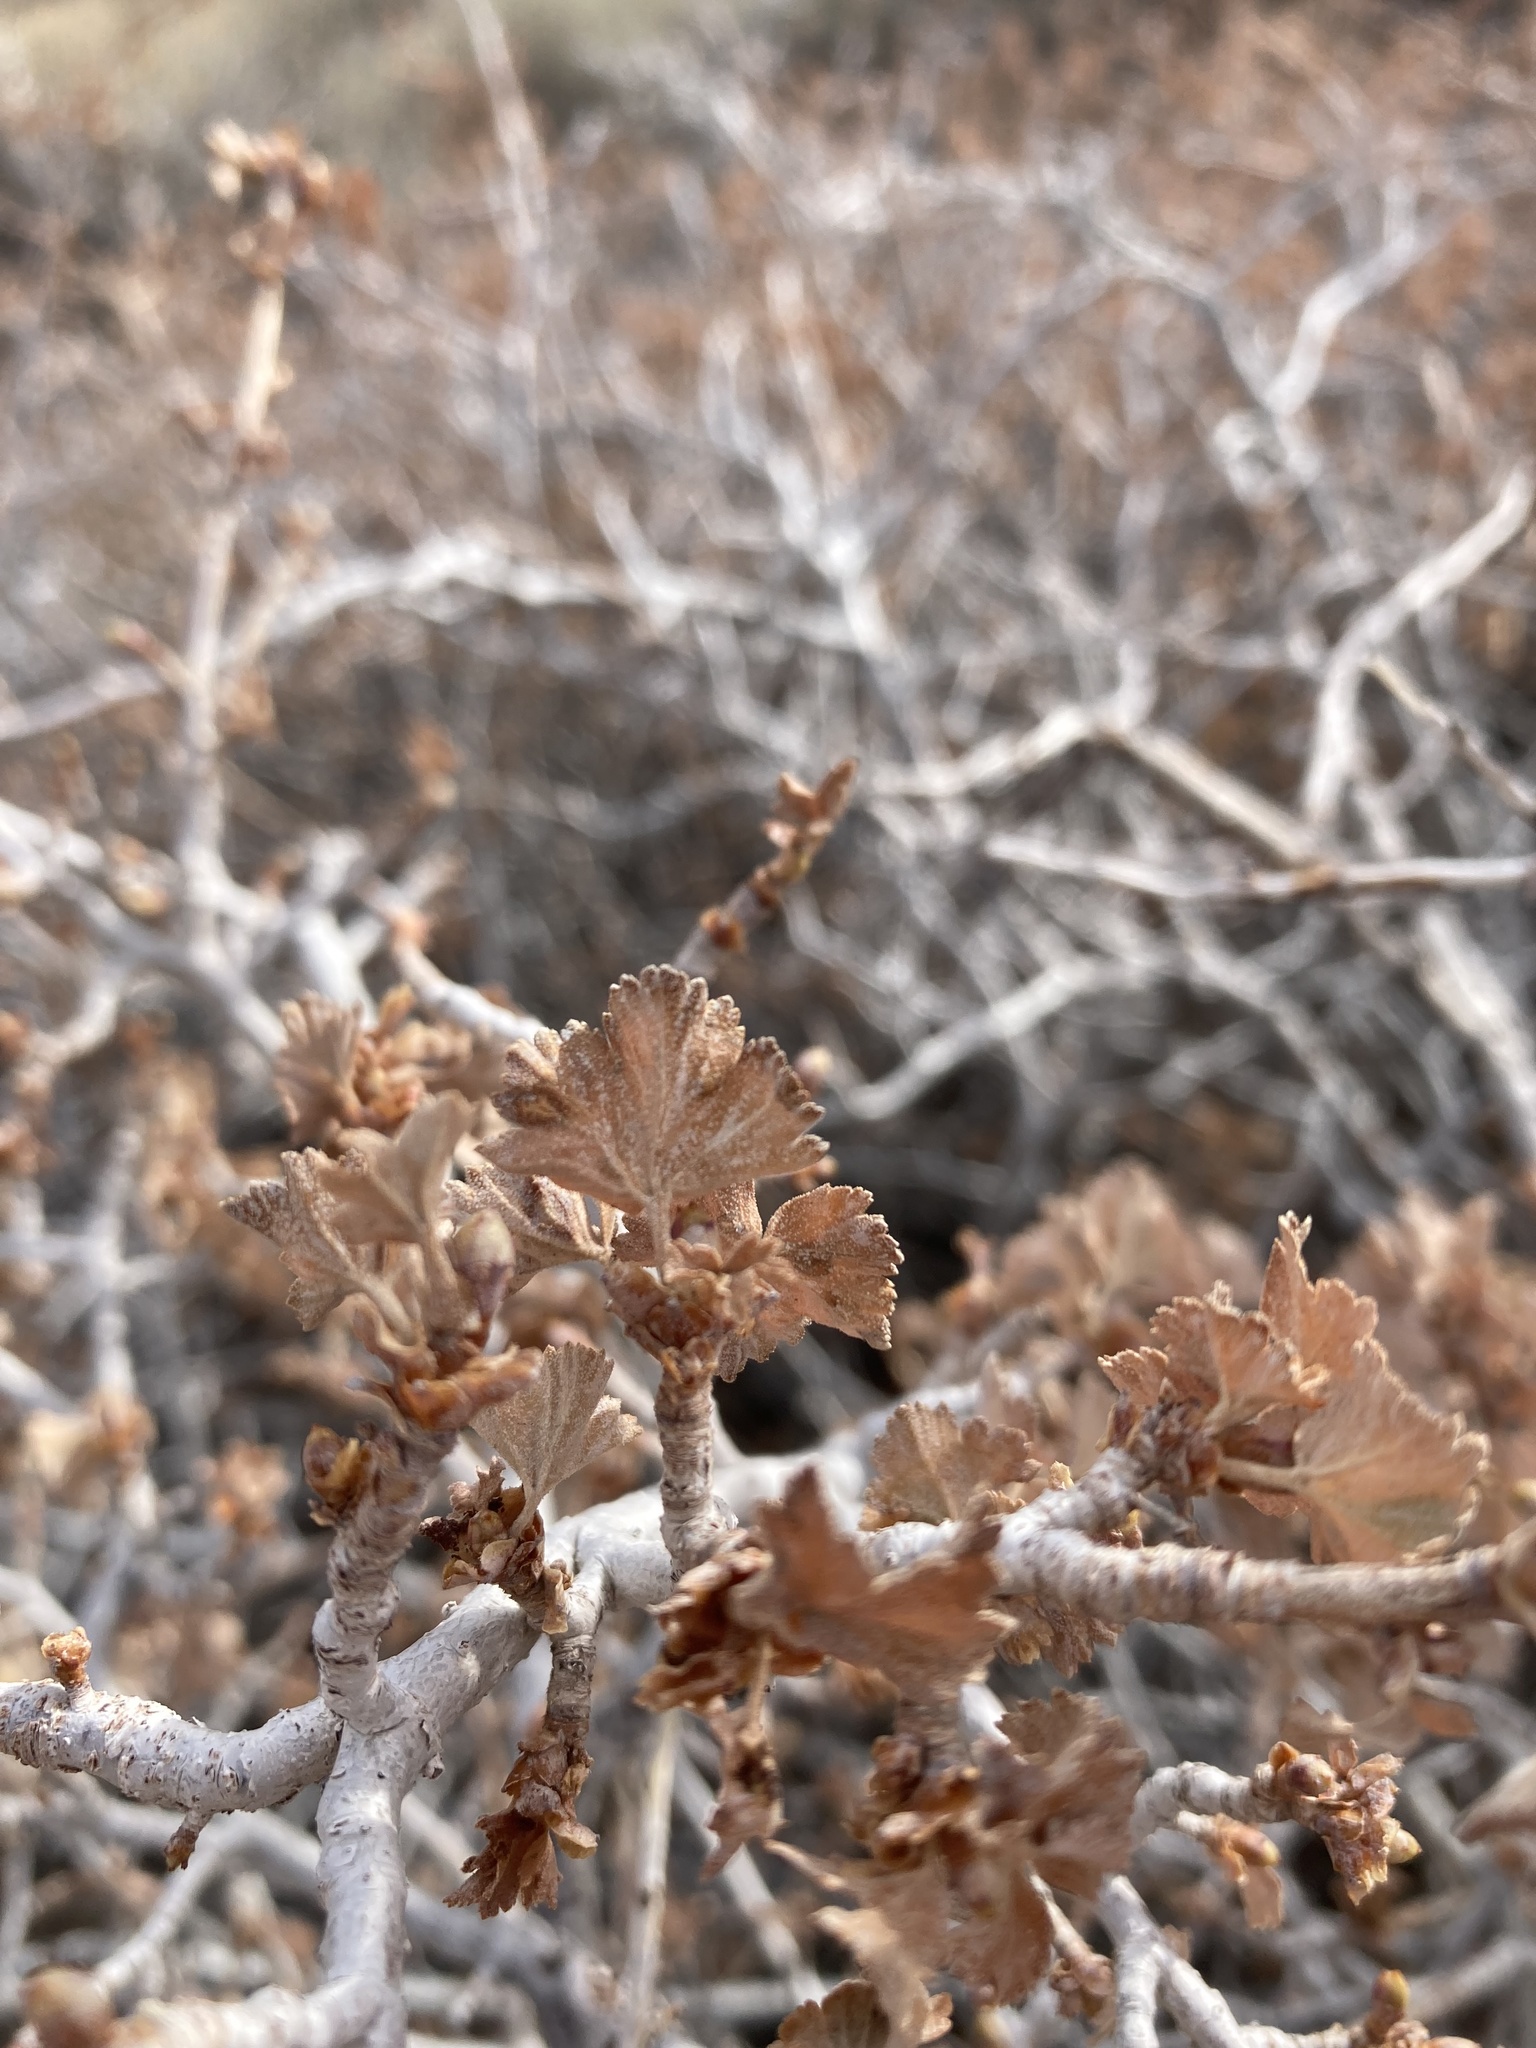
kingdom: Plantae
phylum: Tracheophyta
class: Magnoliopsida
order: Saxifragales
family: Grossulariaceae
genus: Ribes
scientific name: Ribes cereum
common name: Wax currant
